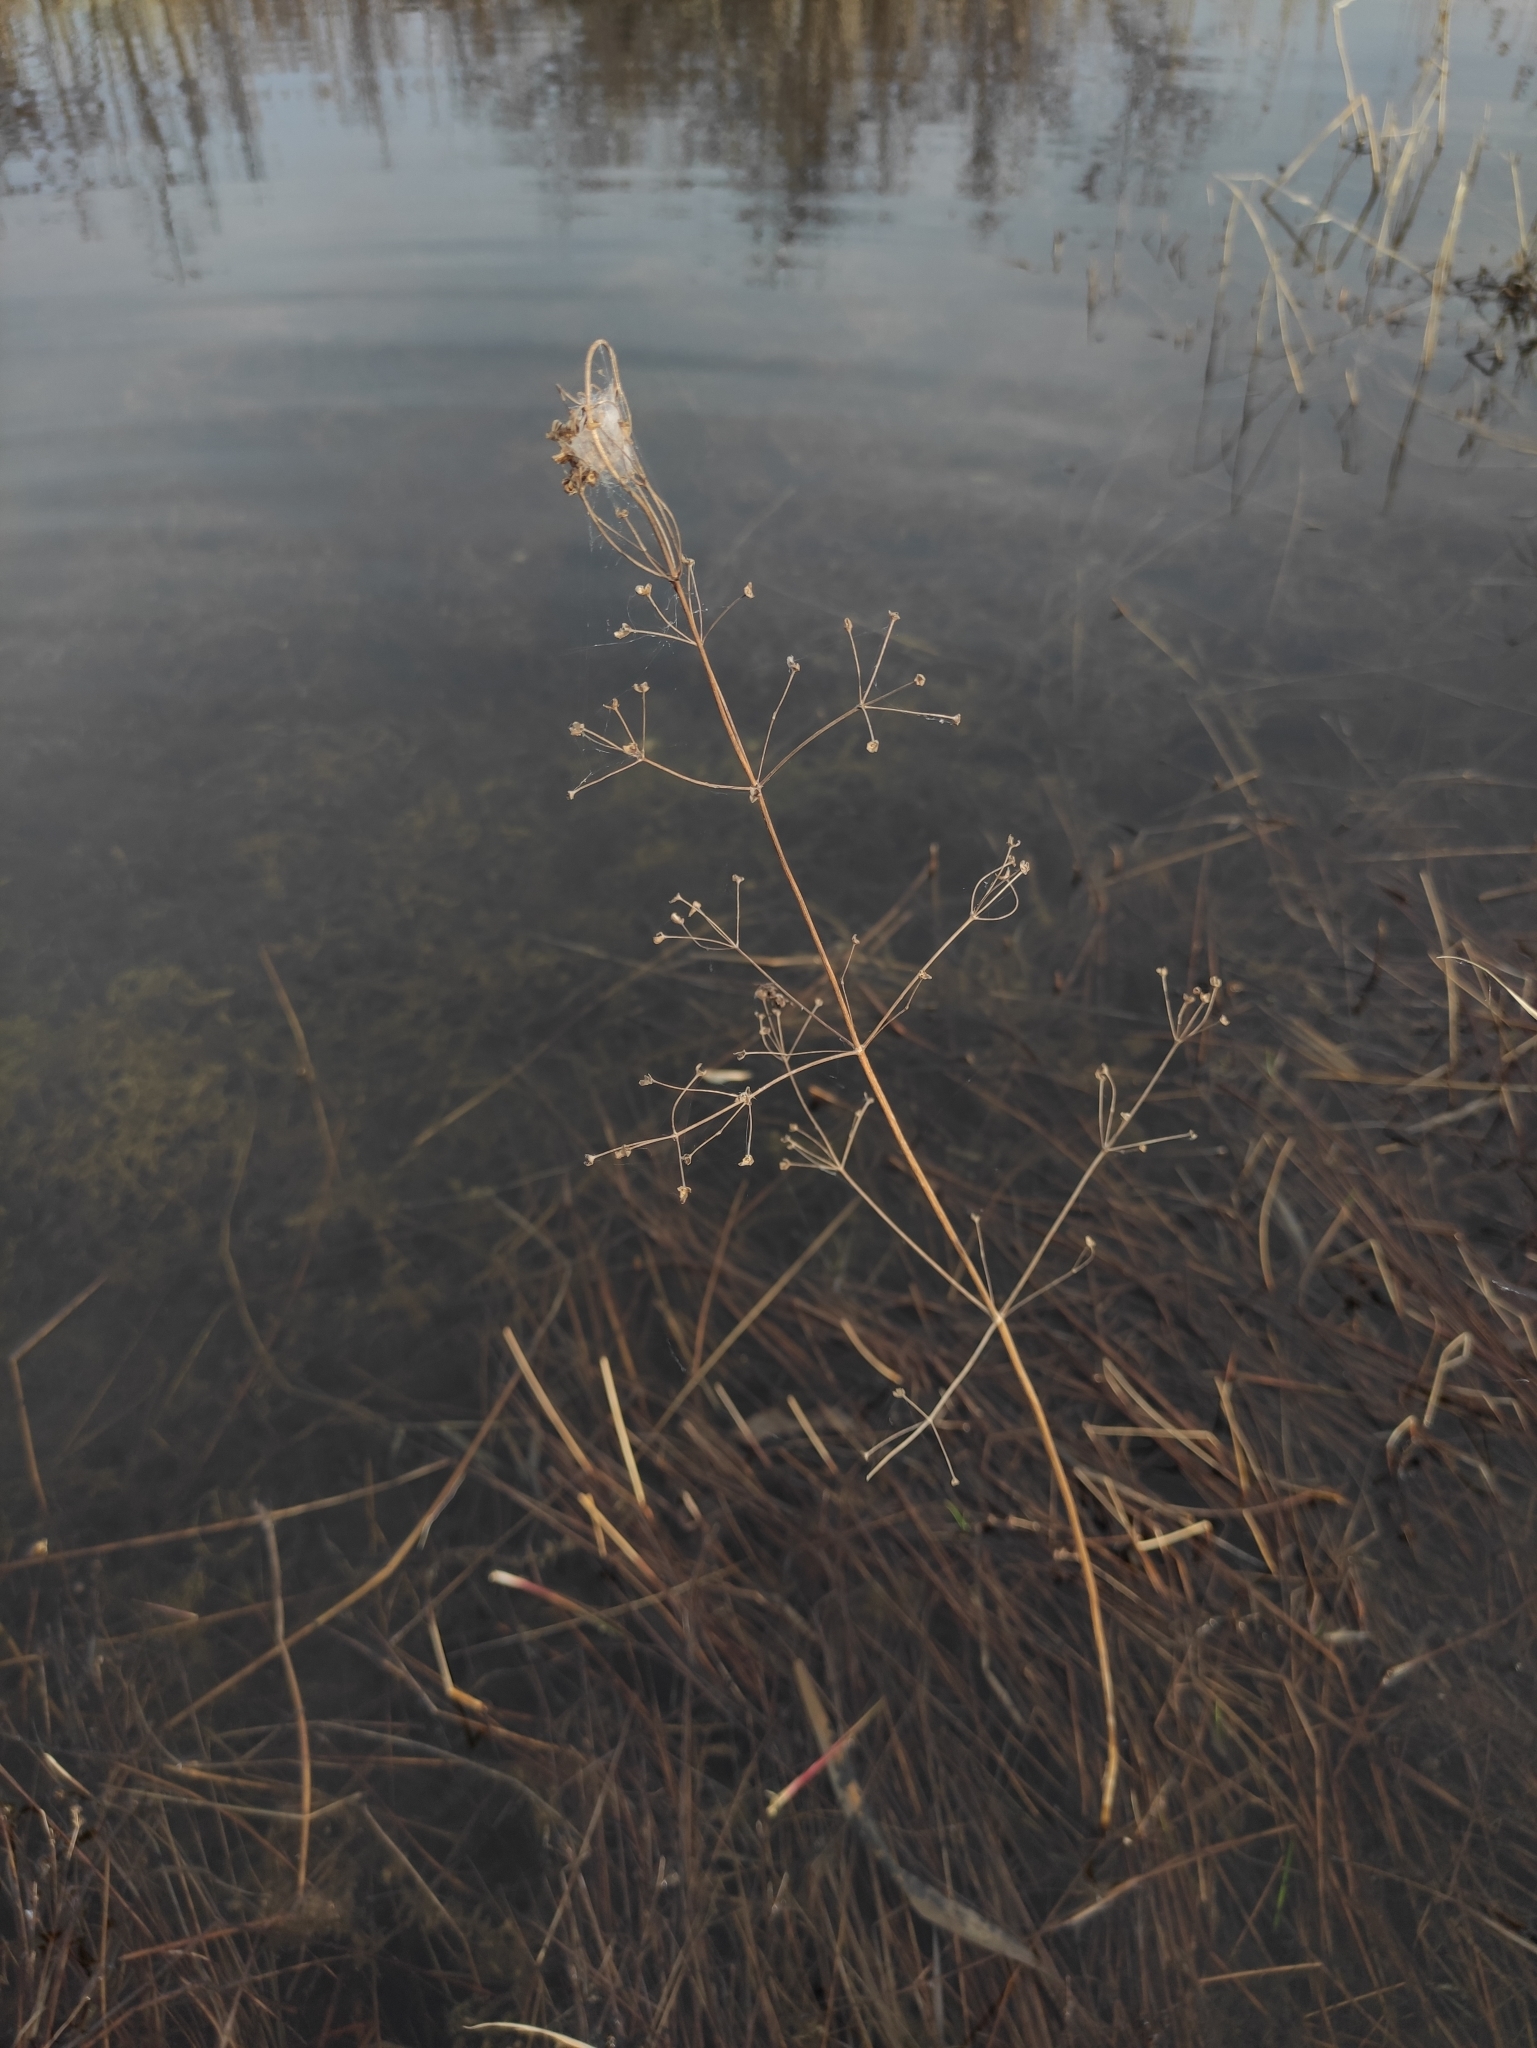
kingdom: Plantae
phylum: Tracheophyta
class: Liliopsida
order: Alismatales
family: Alismataceae
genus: Alisma
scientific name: Alisma plantago-aquatica
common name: Water-plantain
